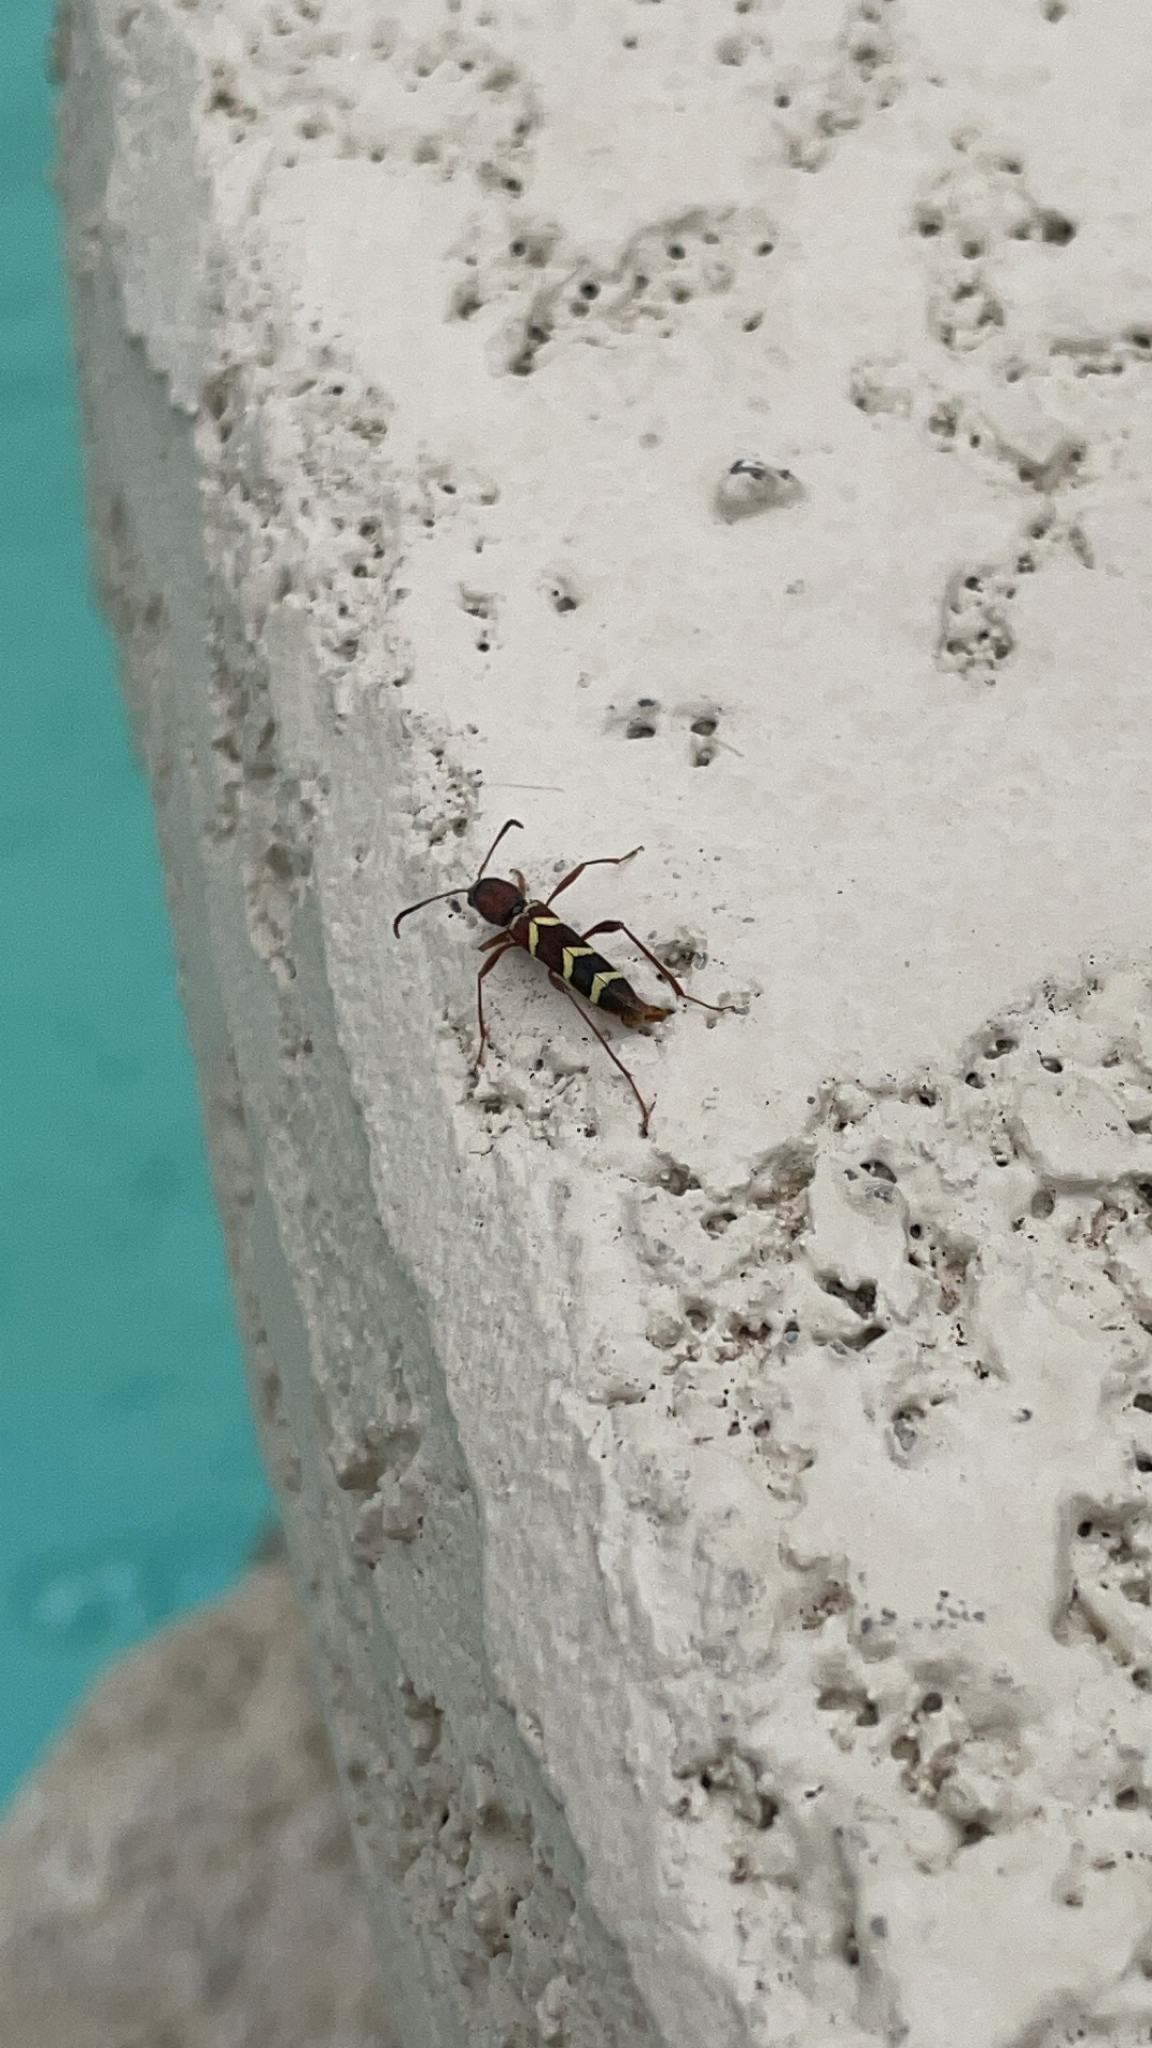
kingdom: Animalia
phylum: Arthropoda
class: Insecta
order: Coleoptera
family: Cerambycidae
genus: Neoclytus
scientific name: Neoclytus acuminatus
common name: Read-headed ash borer
